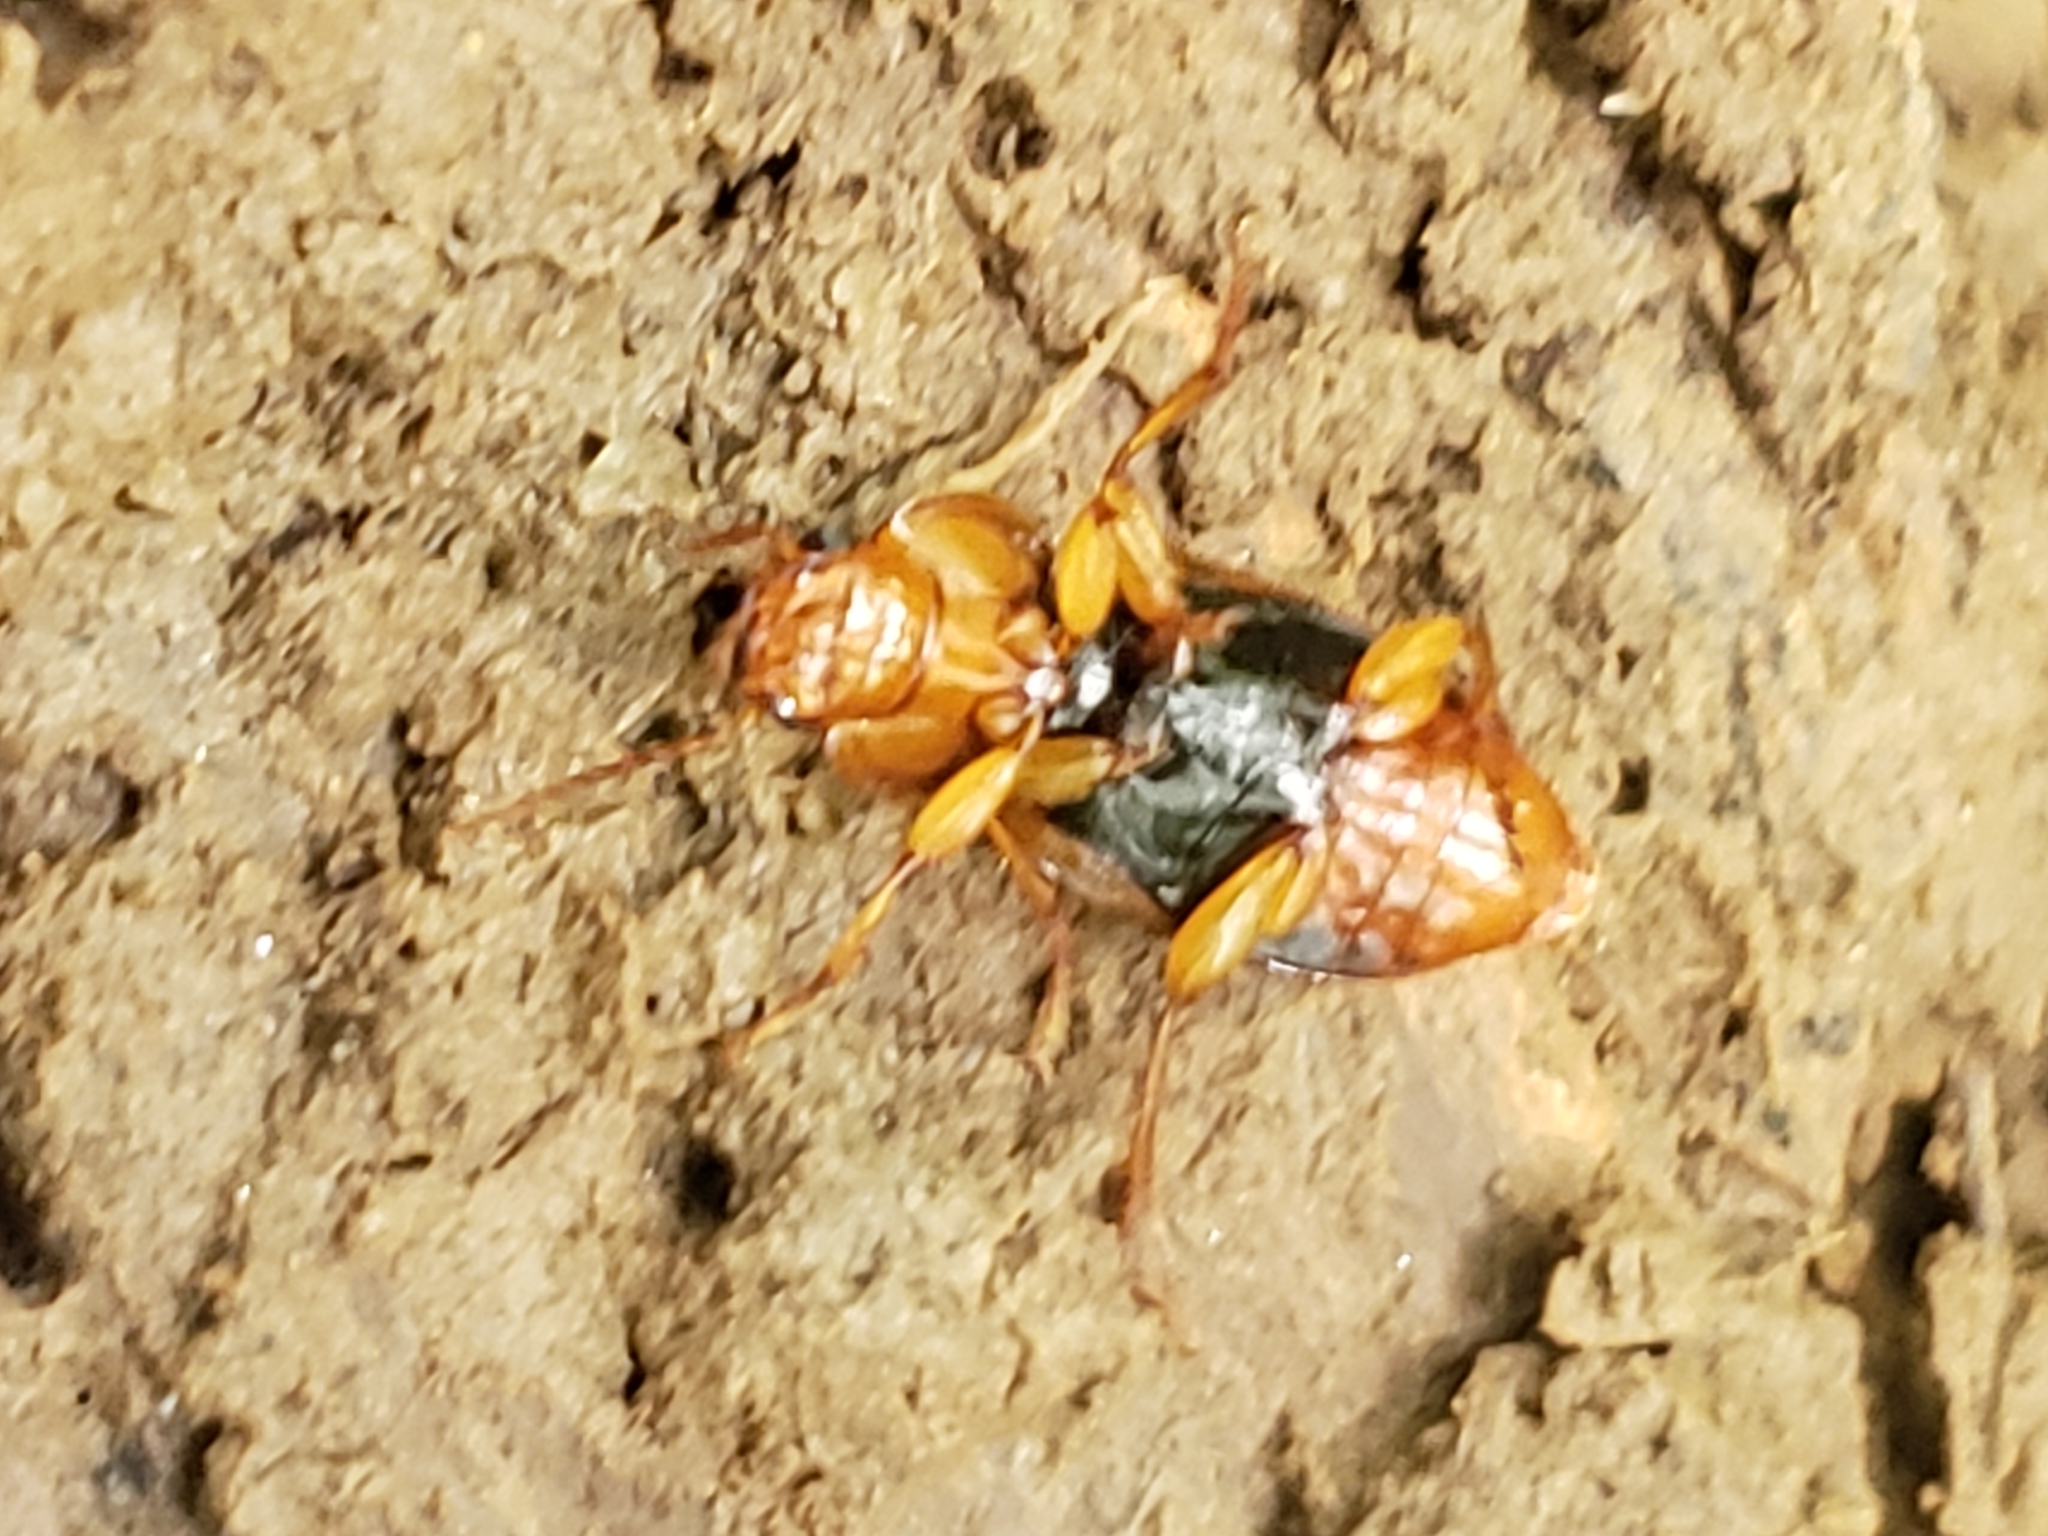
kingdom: Animalia
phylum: Arthropoda
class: Insecta
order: Coleoptera
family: Carabidae
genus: Amphasia
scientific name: Amphasia interstitialis
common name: Red-headed ground beetle
